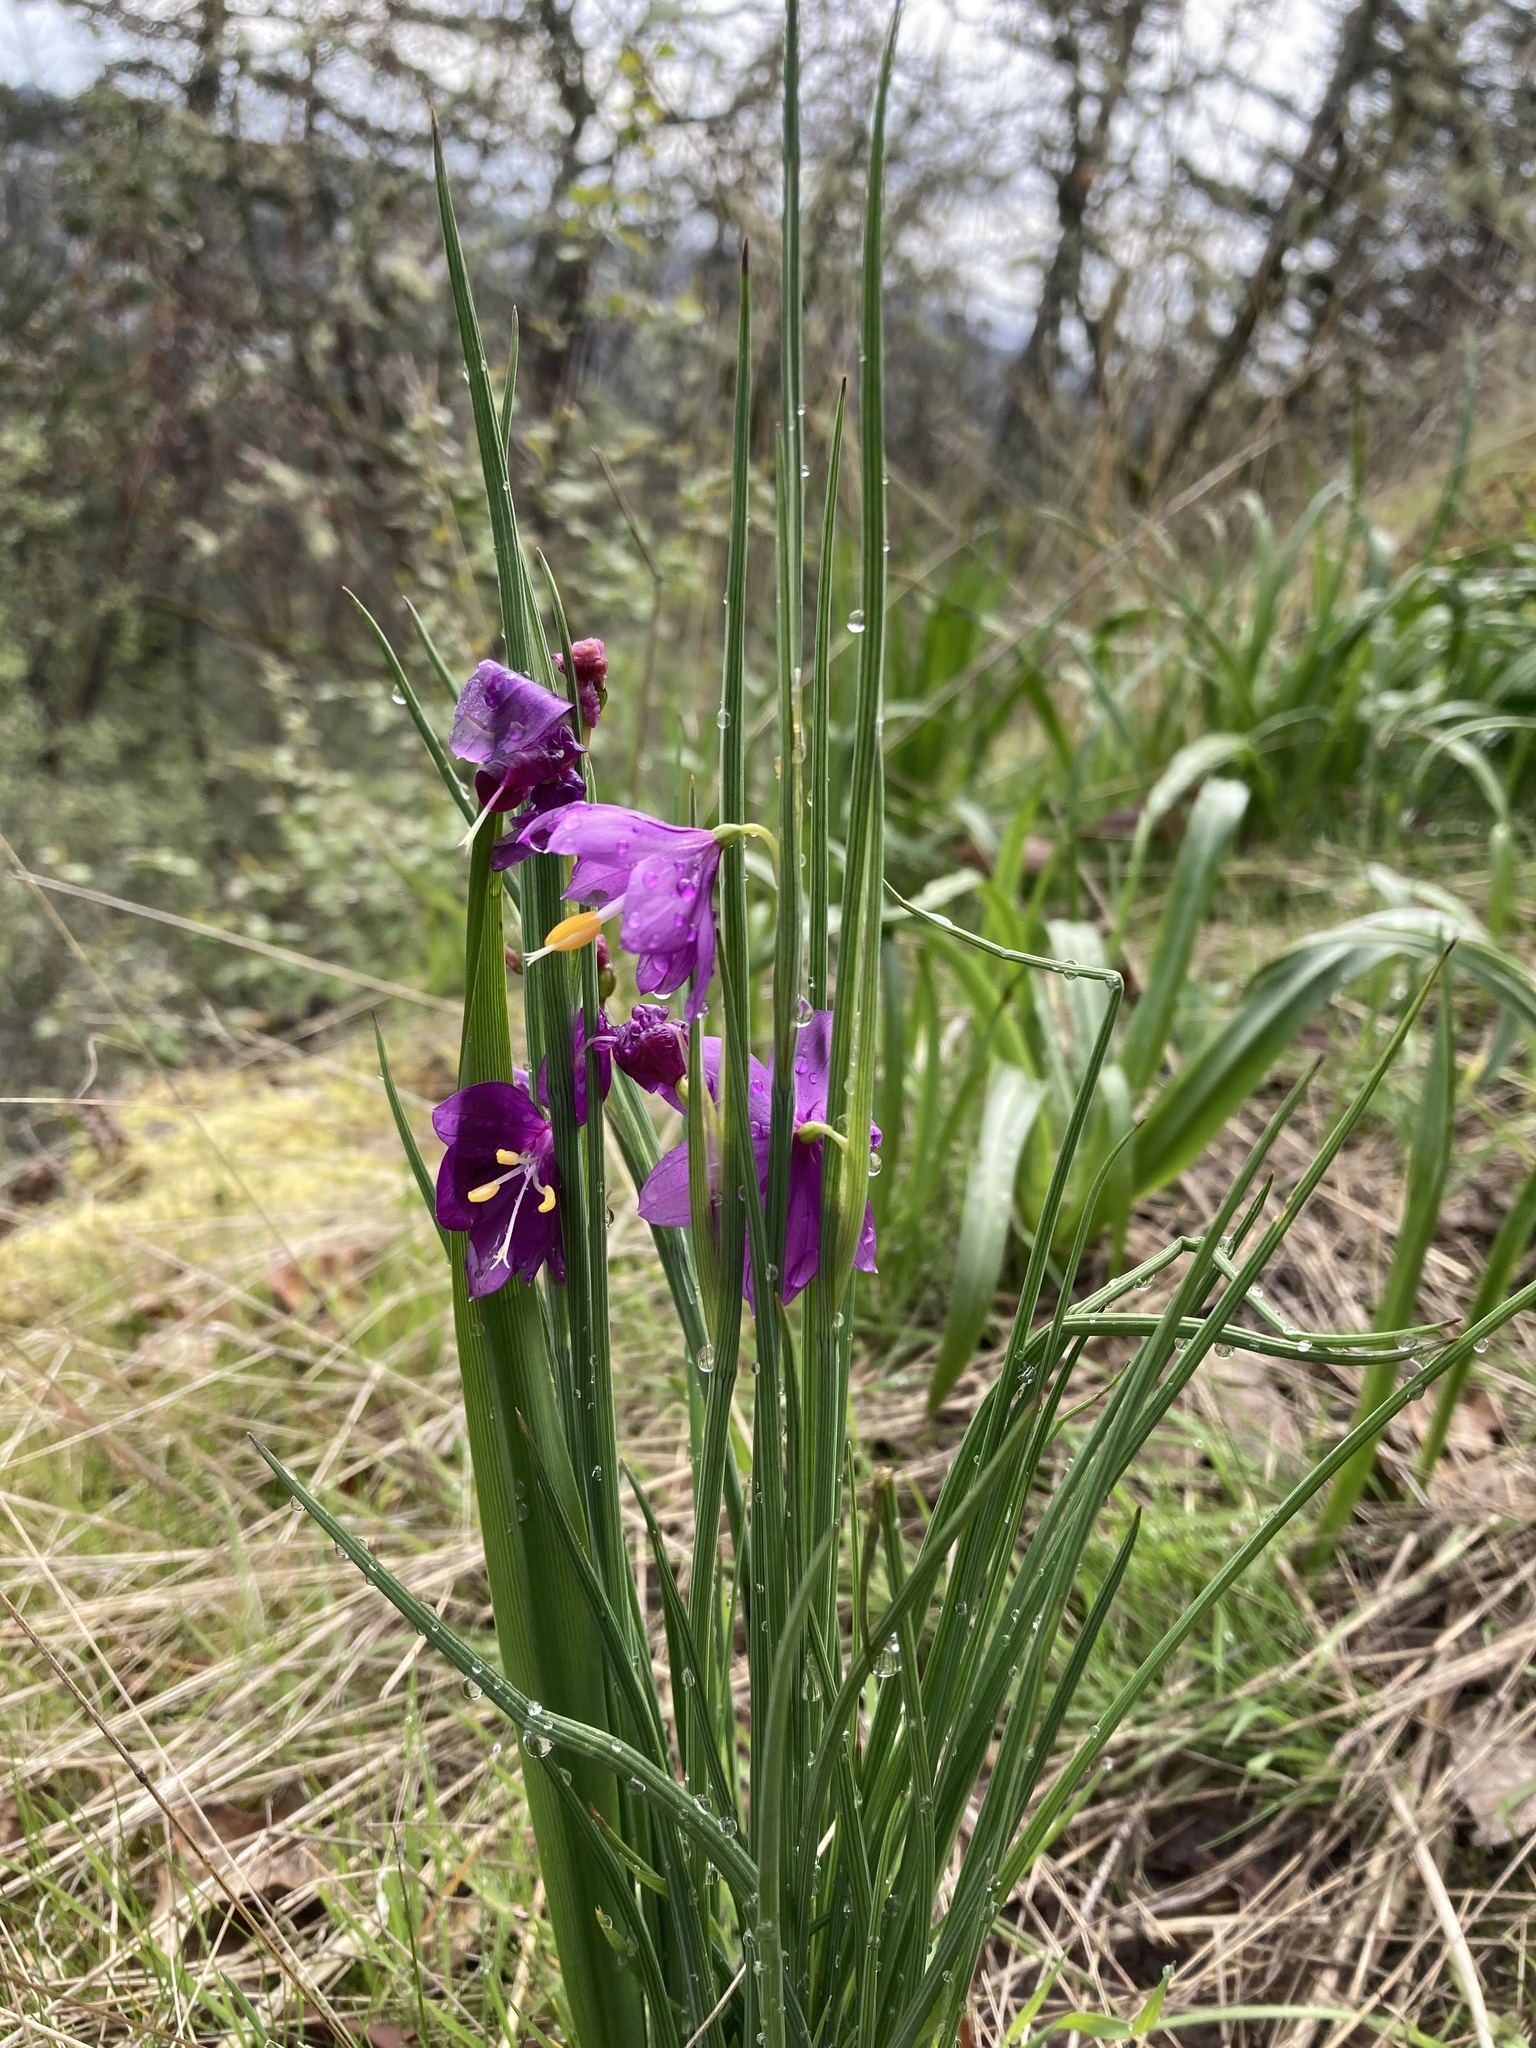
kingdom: Plantae
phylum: Tracheophyta
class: Liliopsida
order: Asparagales
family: Iridaceae
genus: Olsynium
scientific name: Olsynium douglasii
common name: Douglas' grasswidow
